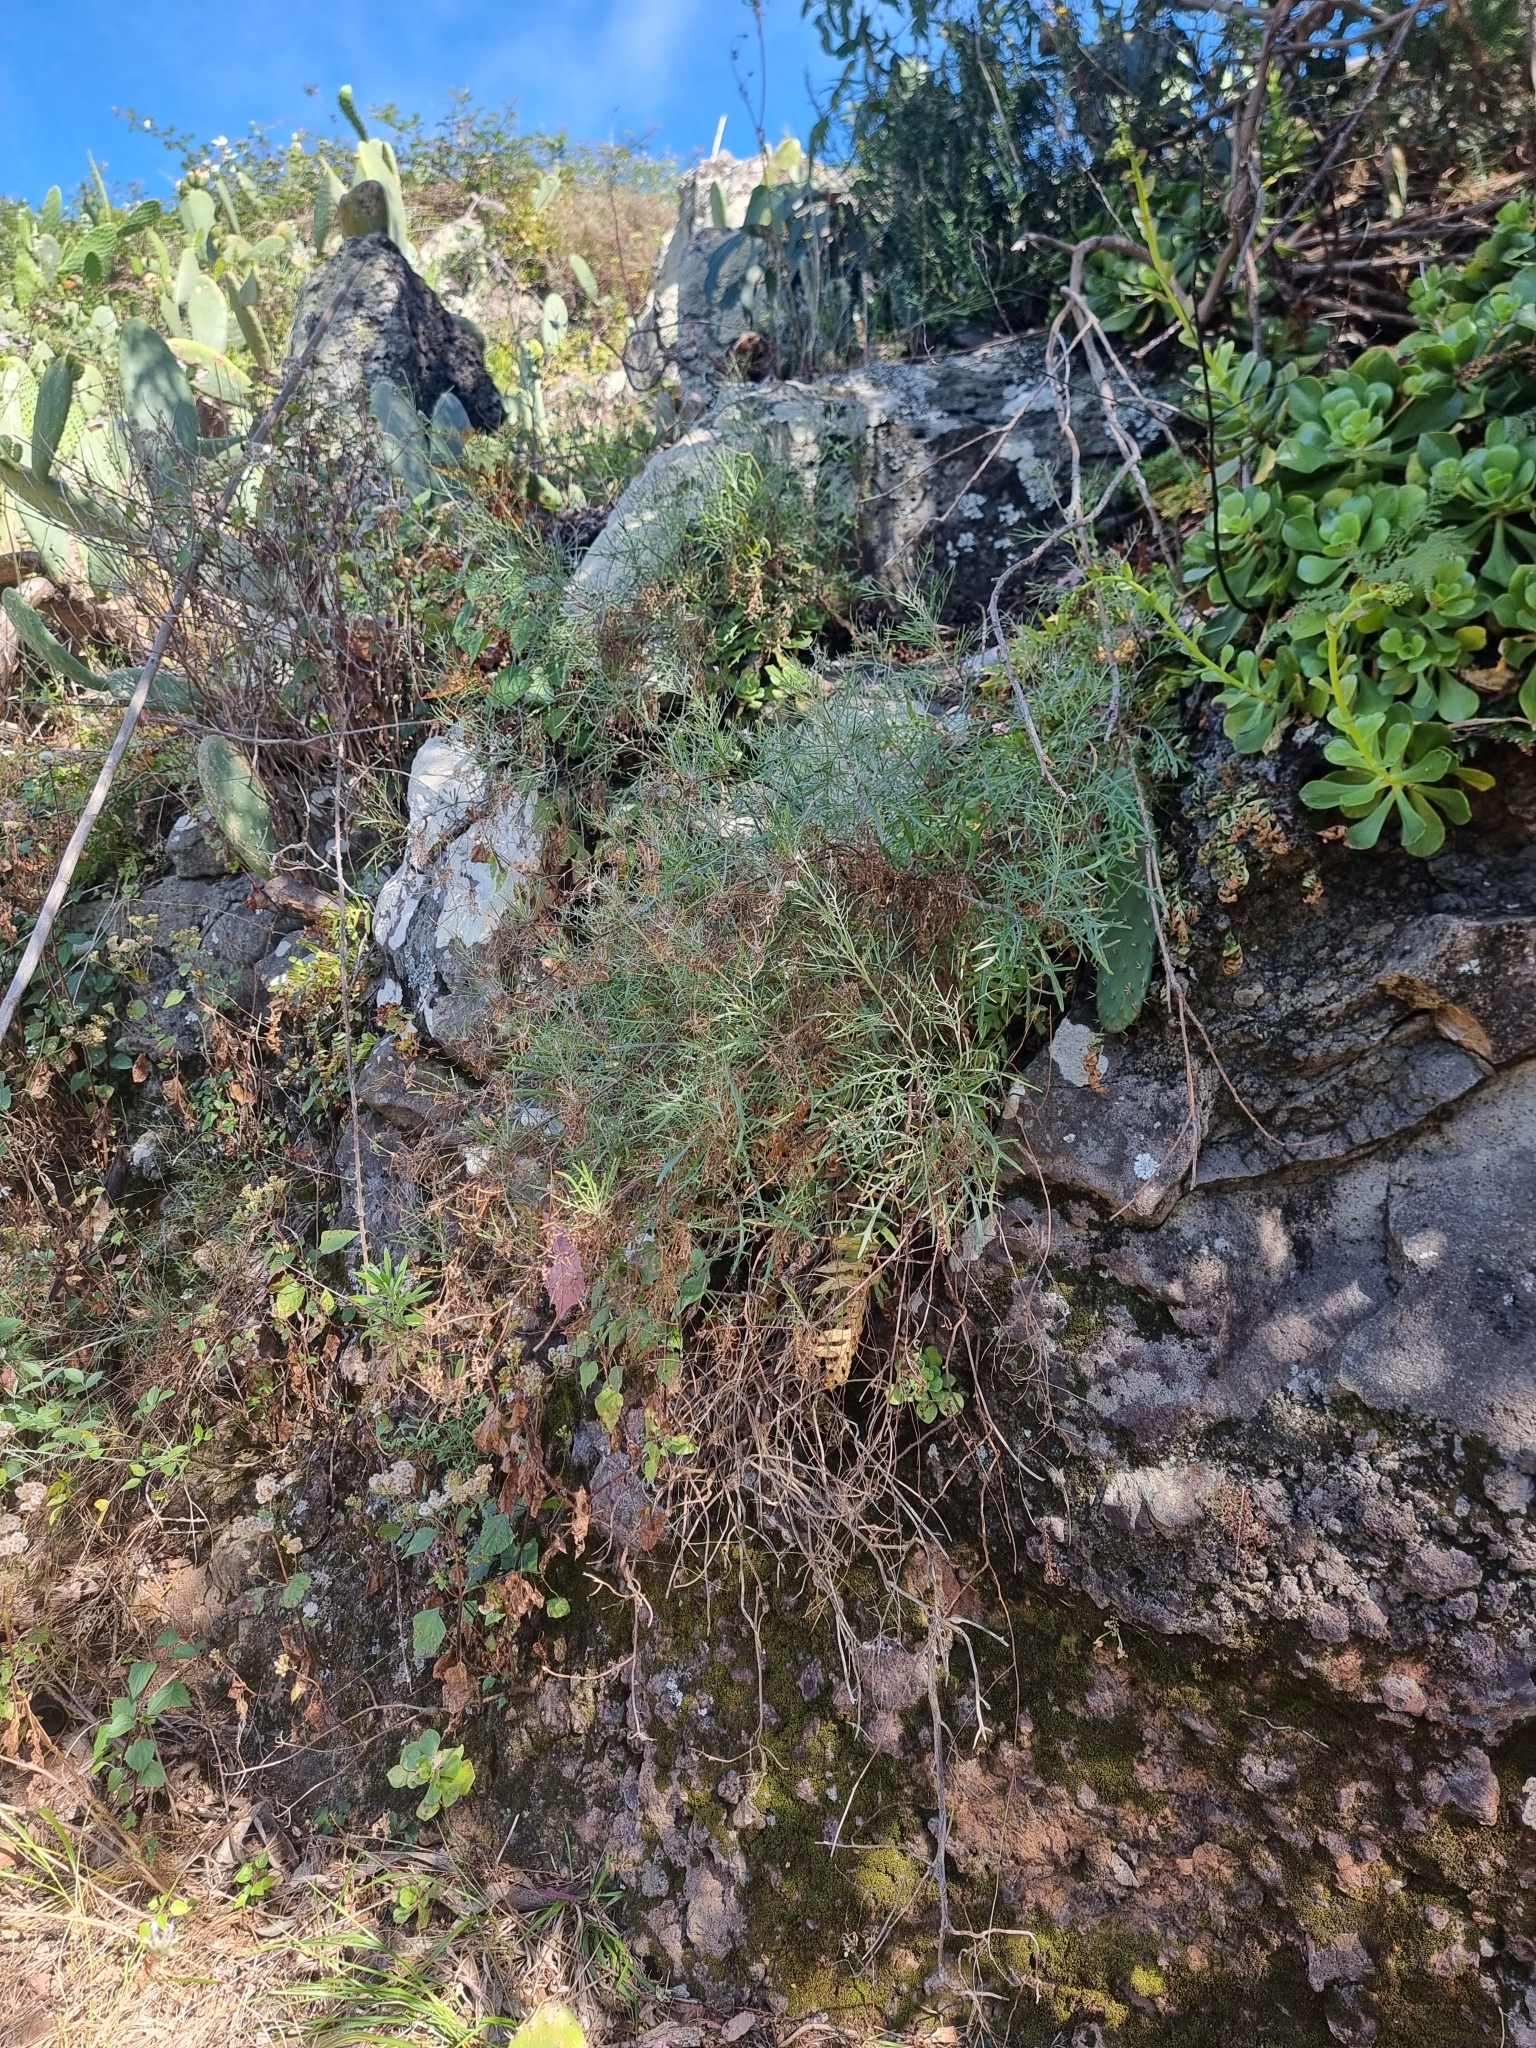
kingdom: Plantae
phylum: Tracheophyta
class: Magnoliopsida
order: Asterales
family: Asteraceae
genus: Tolpis
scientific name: Tolpis succulenta
